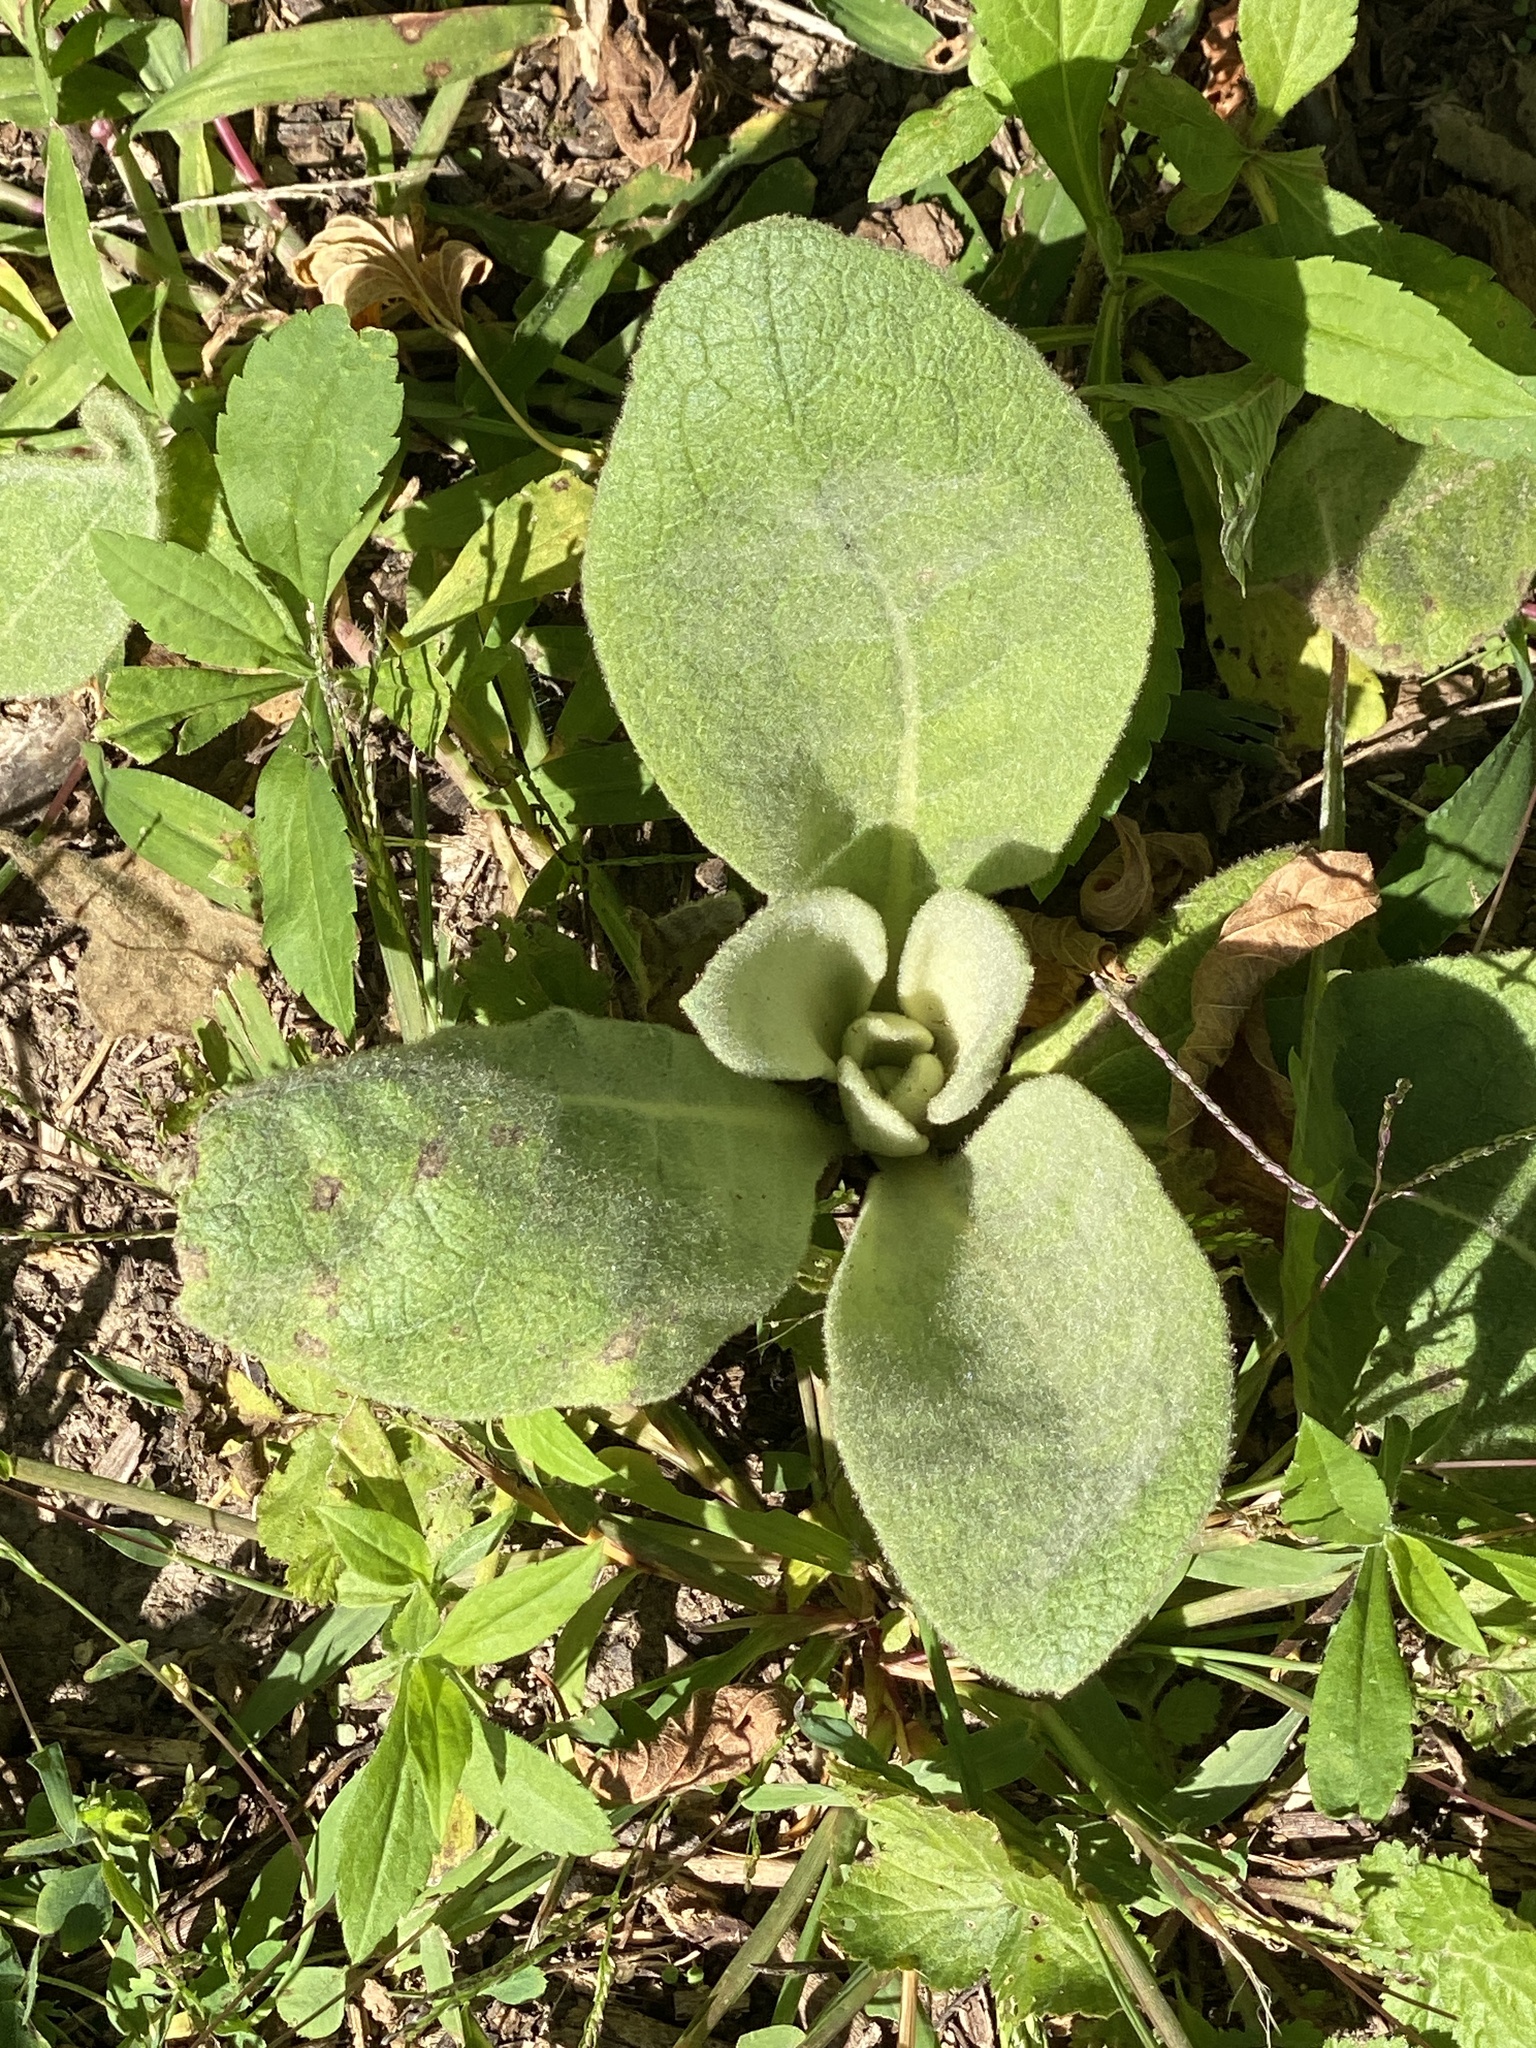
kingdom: Plantae
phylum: Tracheophyta
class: Magnoliopsida
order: Lamiales
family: Scrophulariaceae
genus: Verbascum
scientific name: Verbascum thapsus
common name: Common mullein
